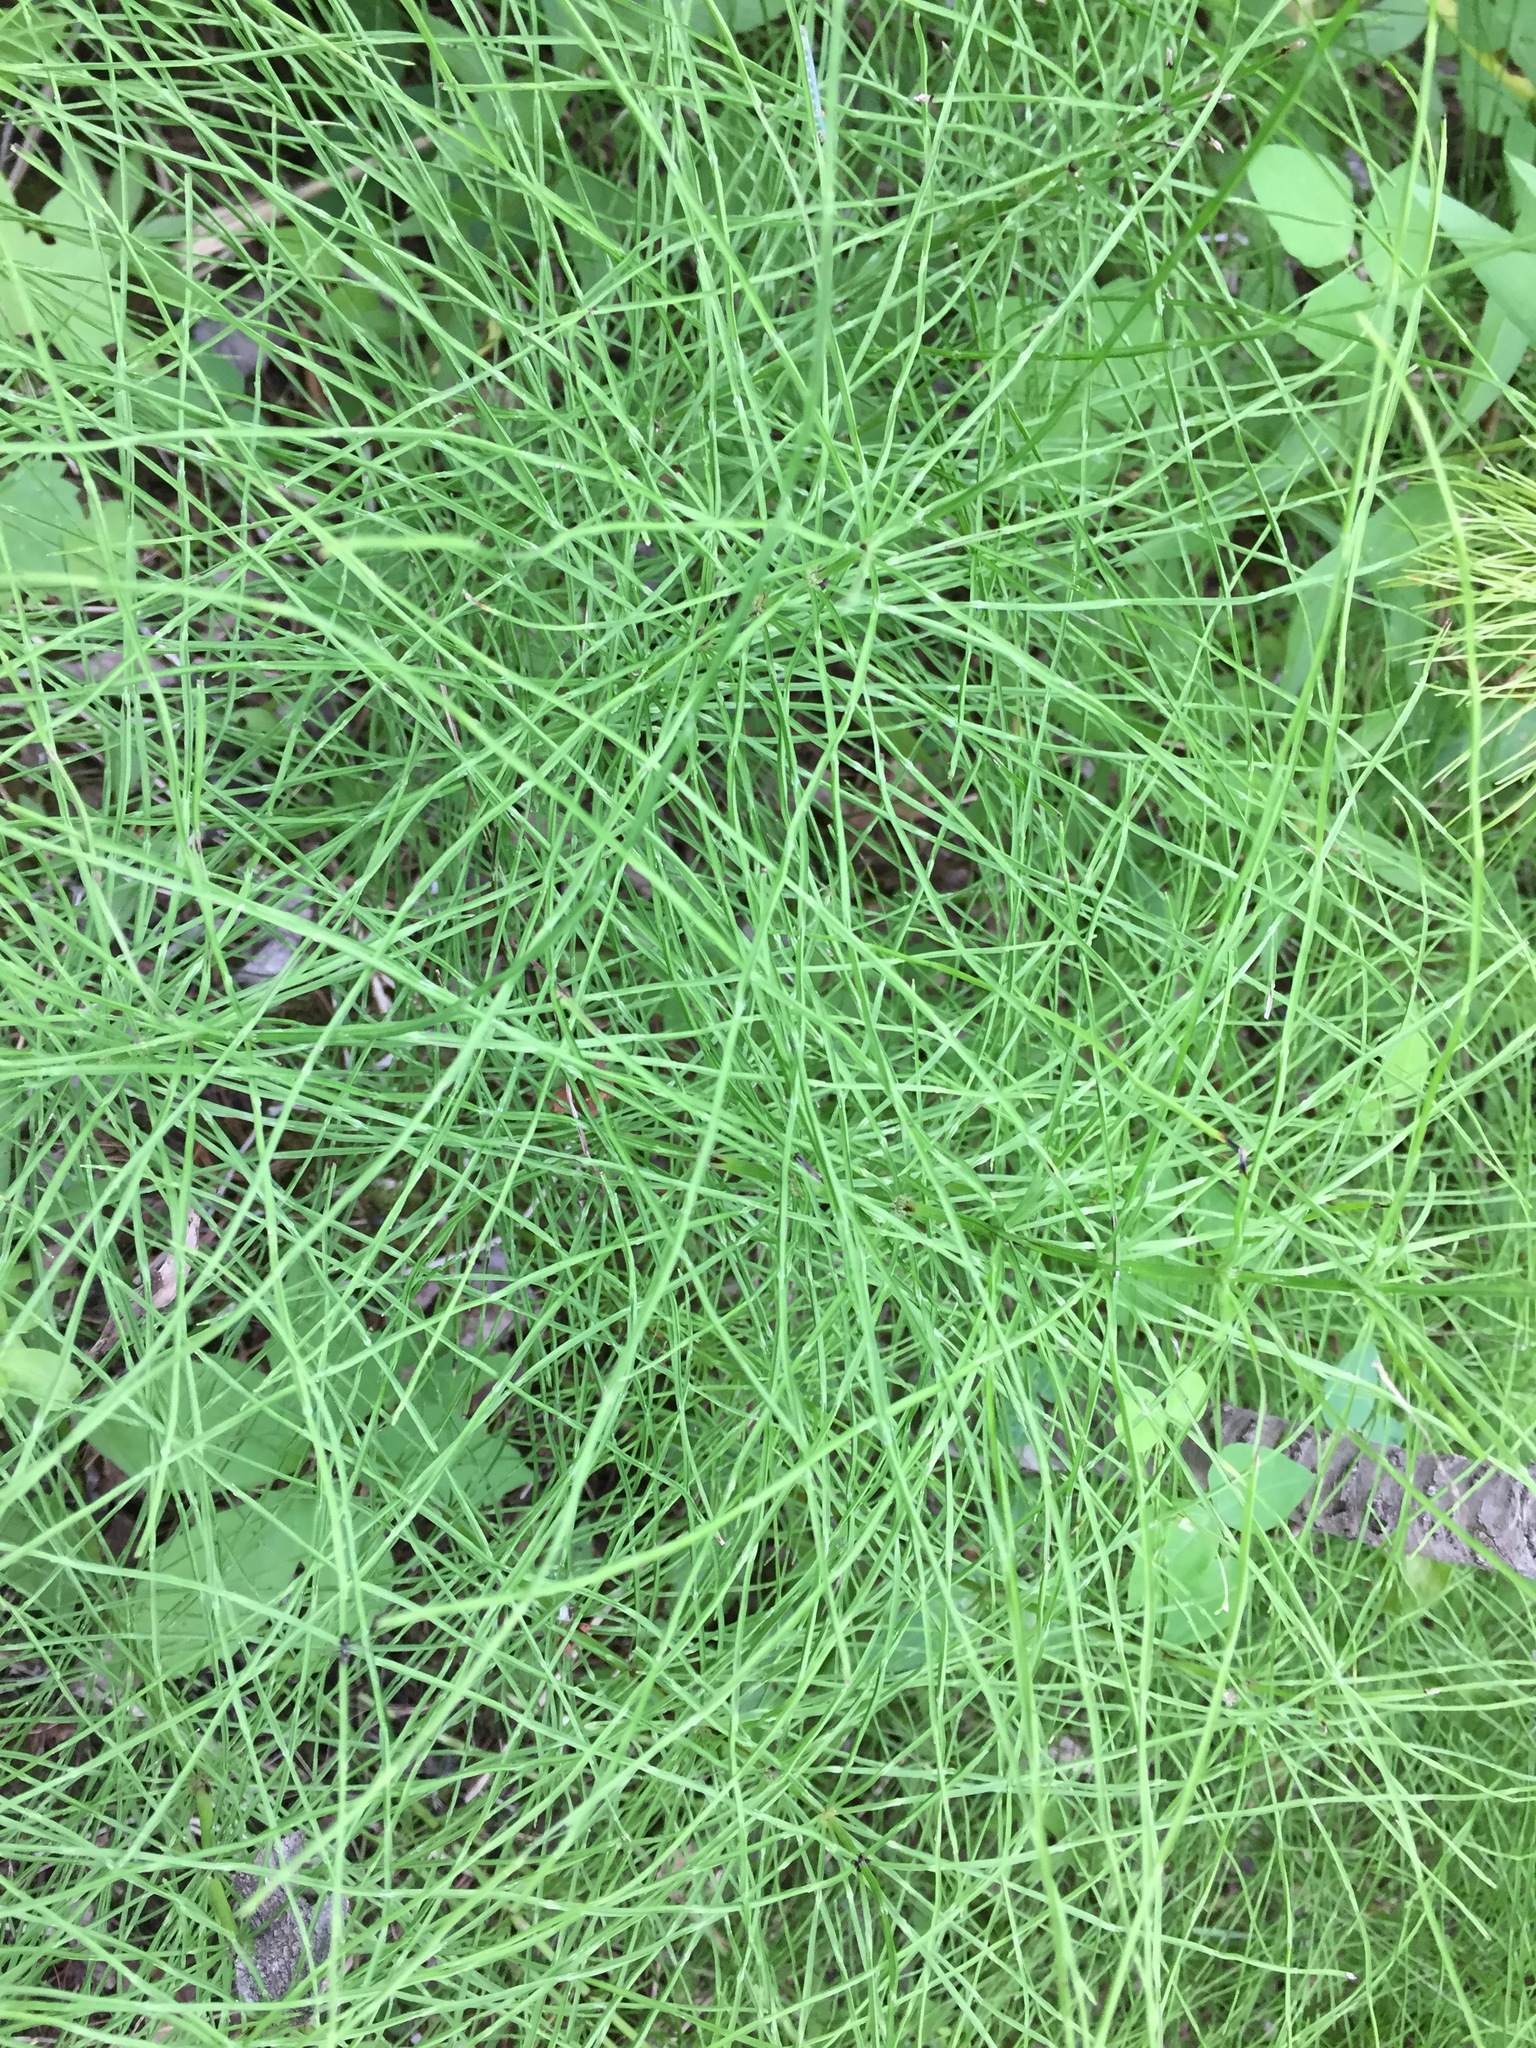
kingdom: Plantae
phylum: Tracheophyta
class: Polypodiopsida
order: Equisetales
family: Equisetaceae
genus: Equisetum
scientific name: Equisetum arvense
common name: Field horsetail
